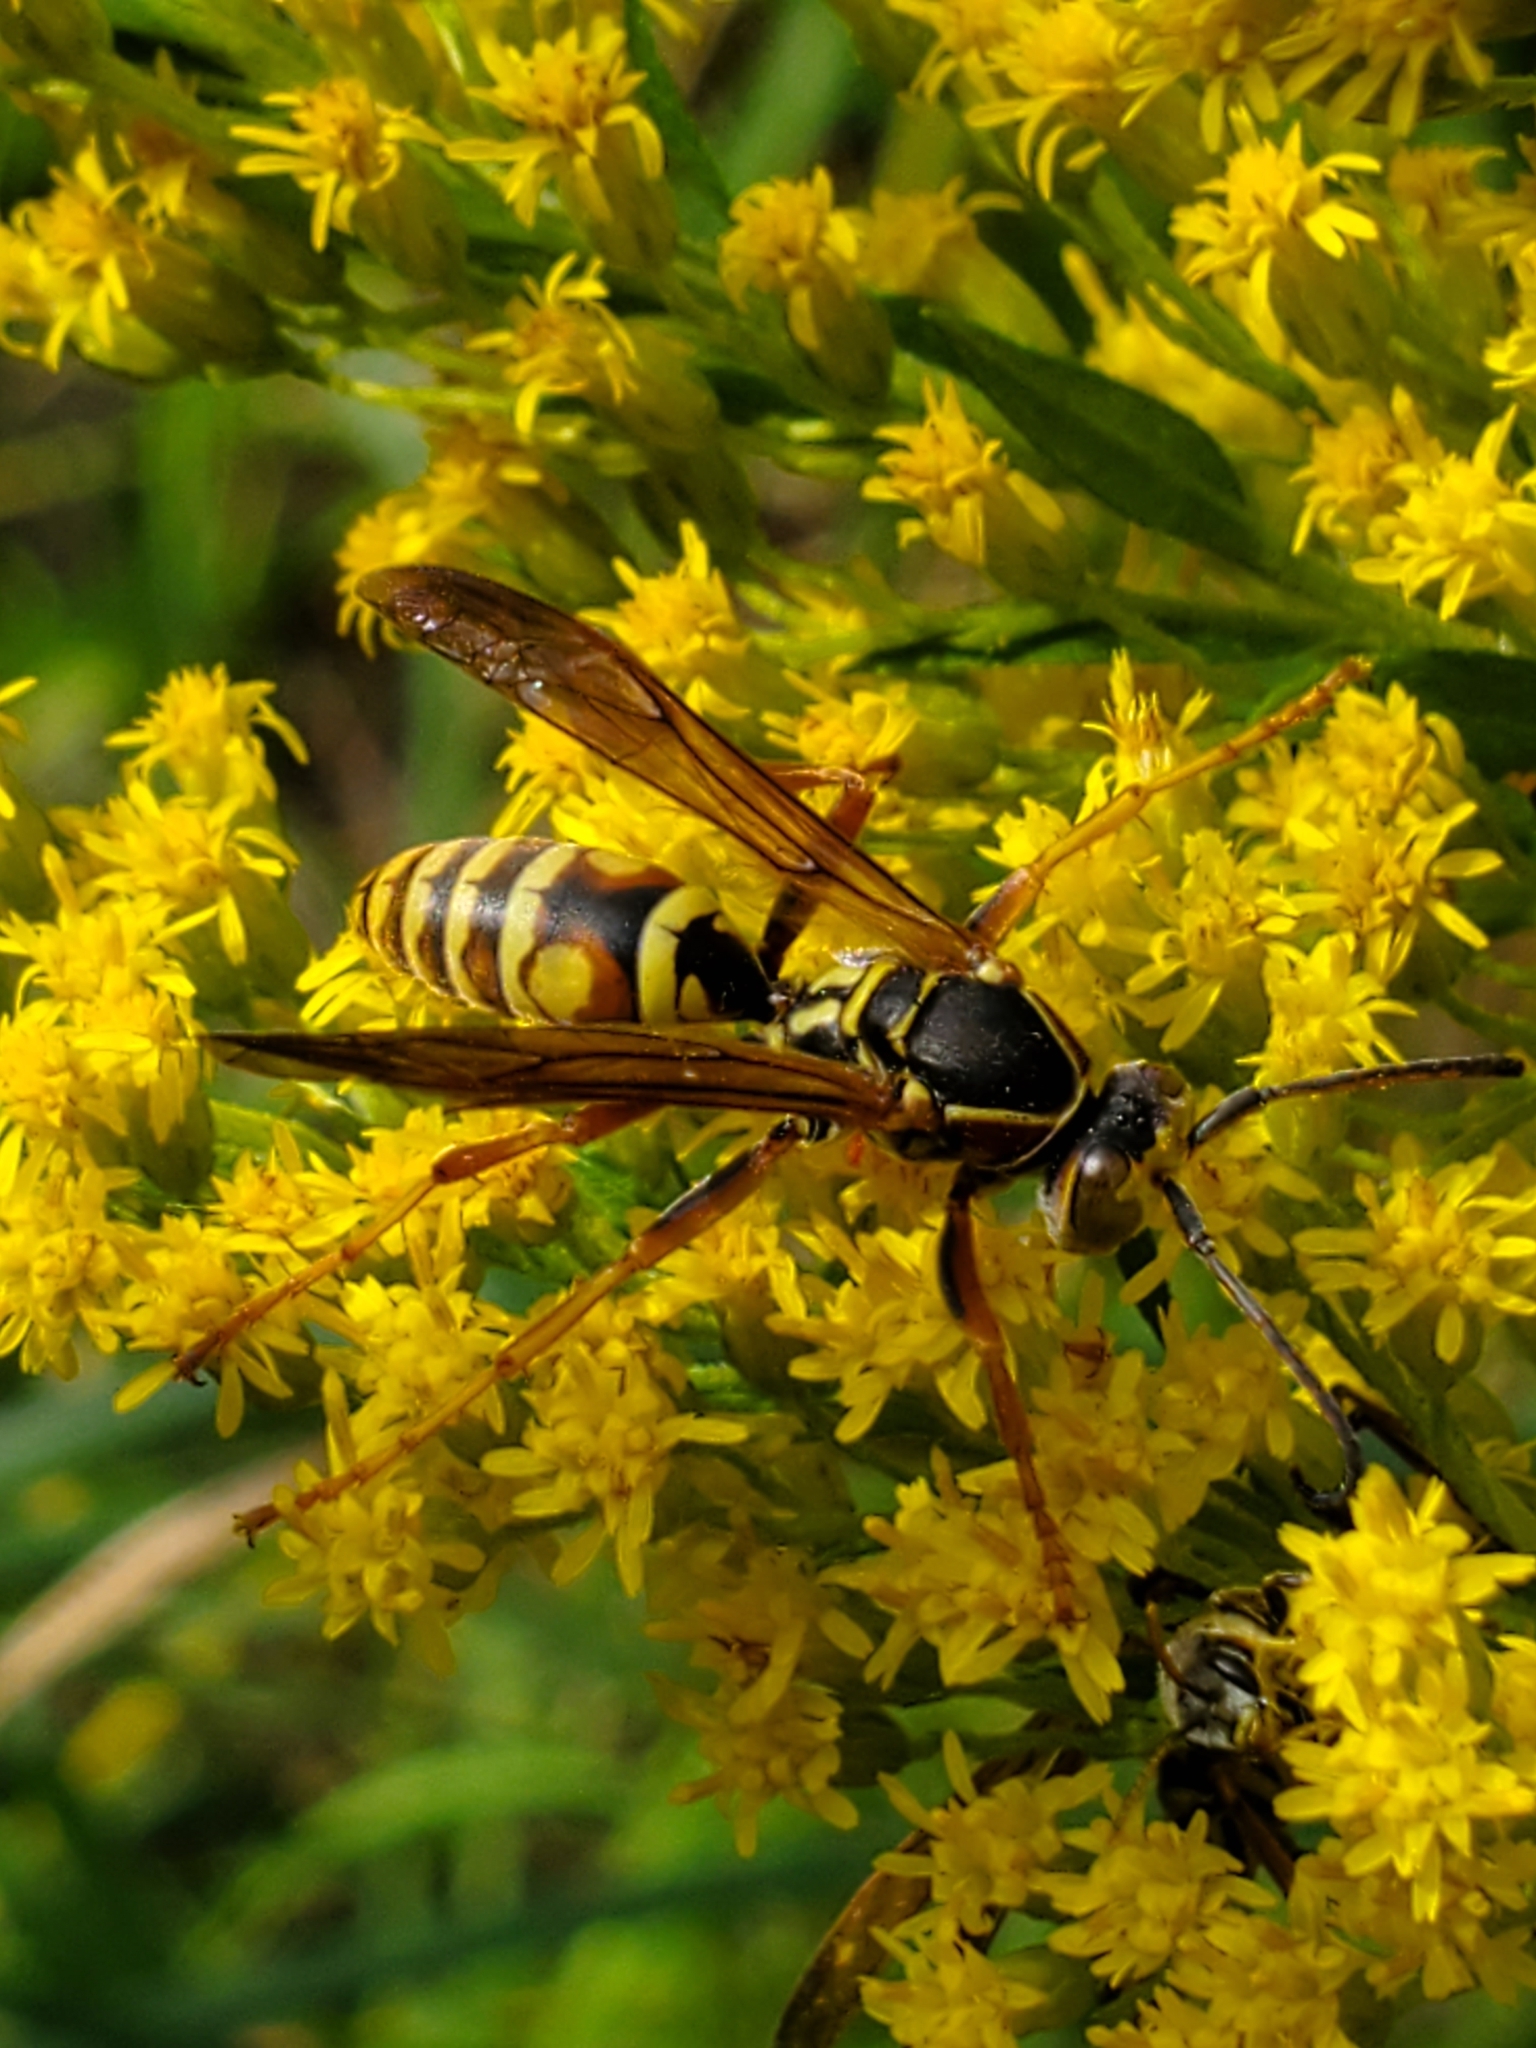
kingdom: Animalia
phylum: Arthropoda
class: Insecta
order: Hymenoptera
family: Eumenidae
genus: Polistes
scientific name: Polistes fuscatus
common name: Dark paper wasp
